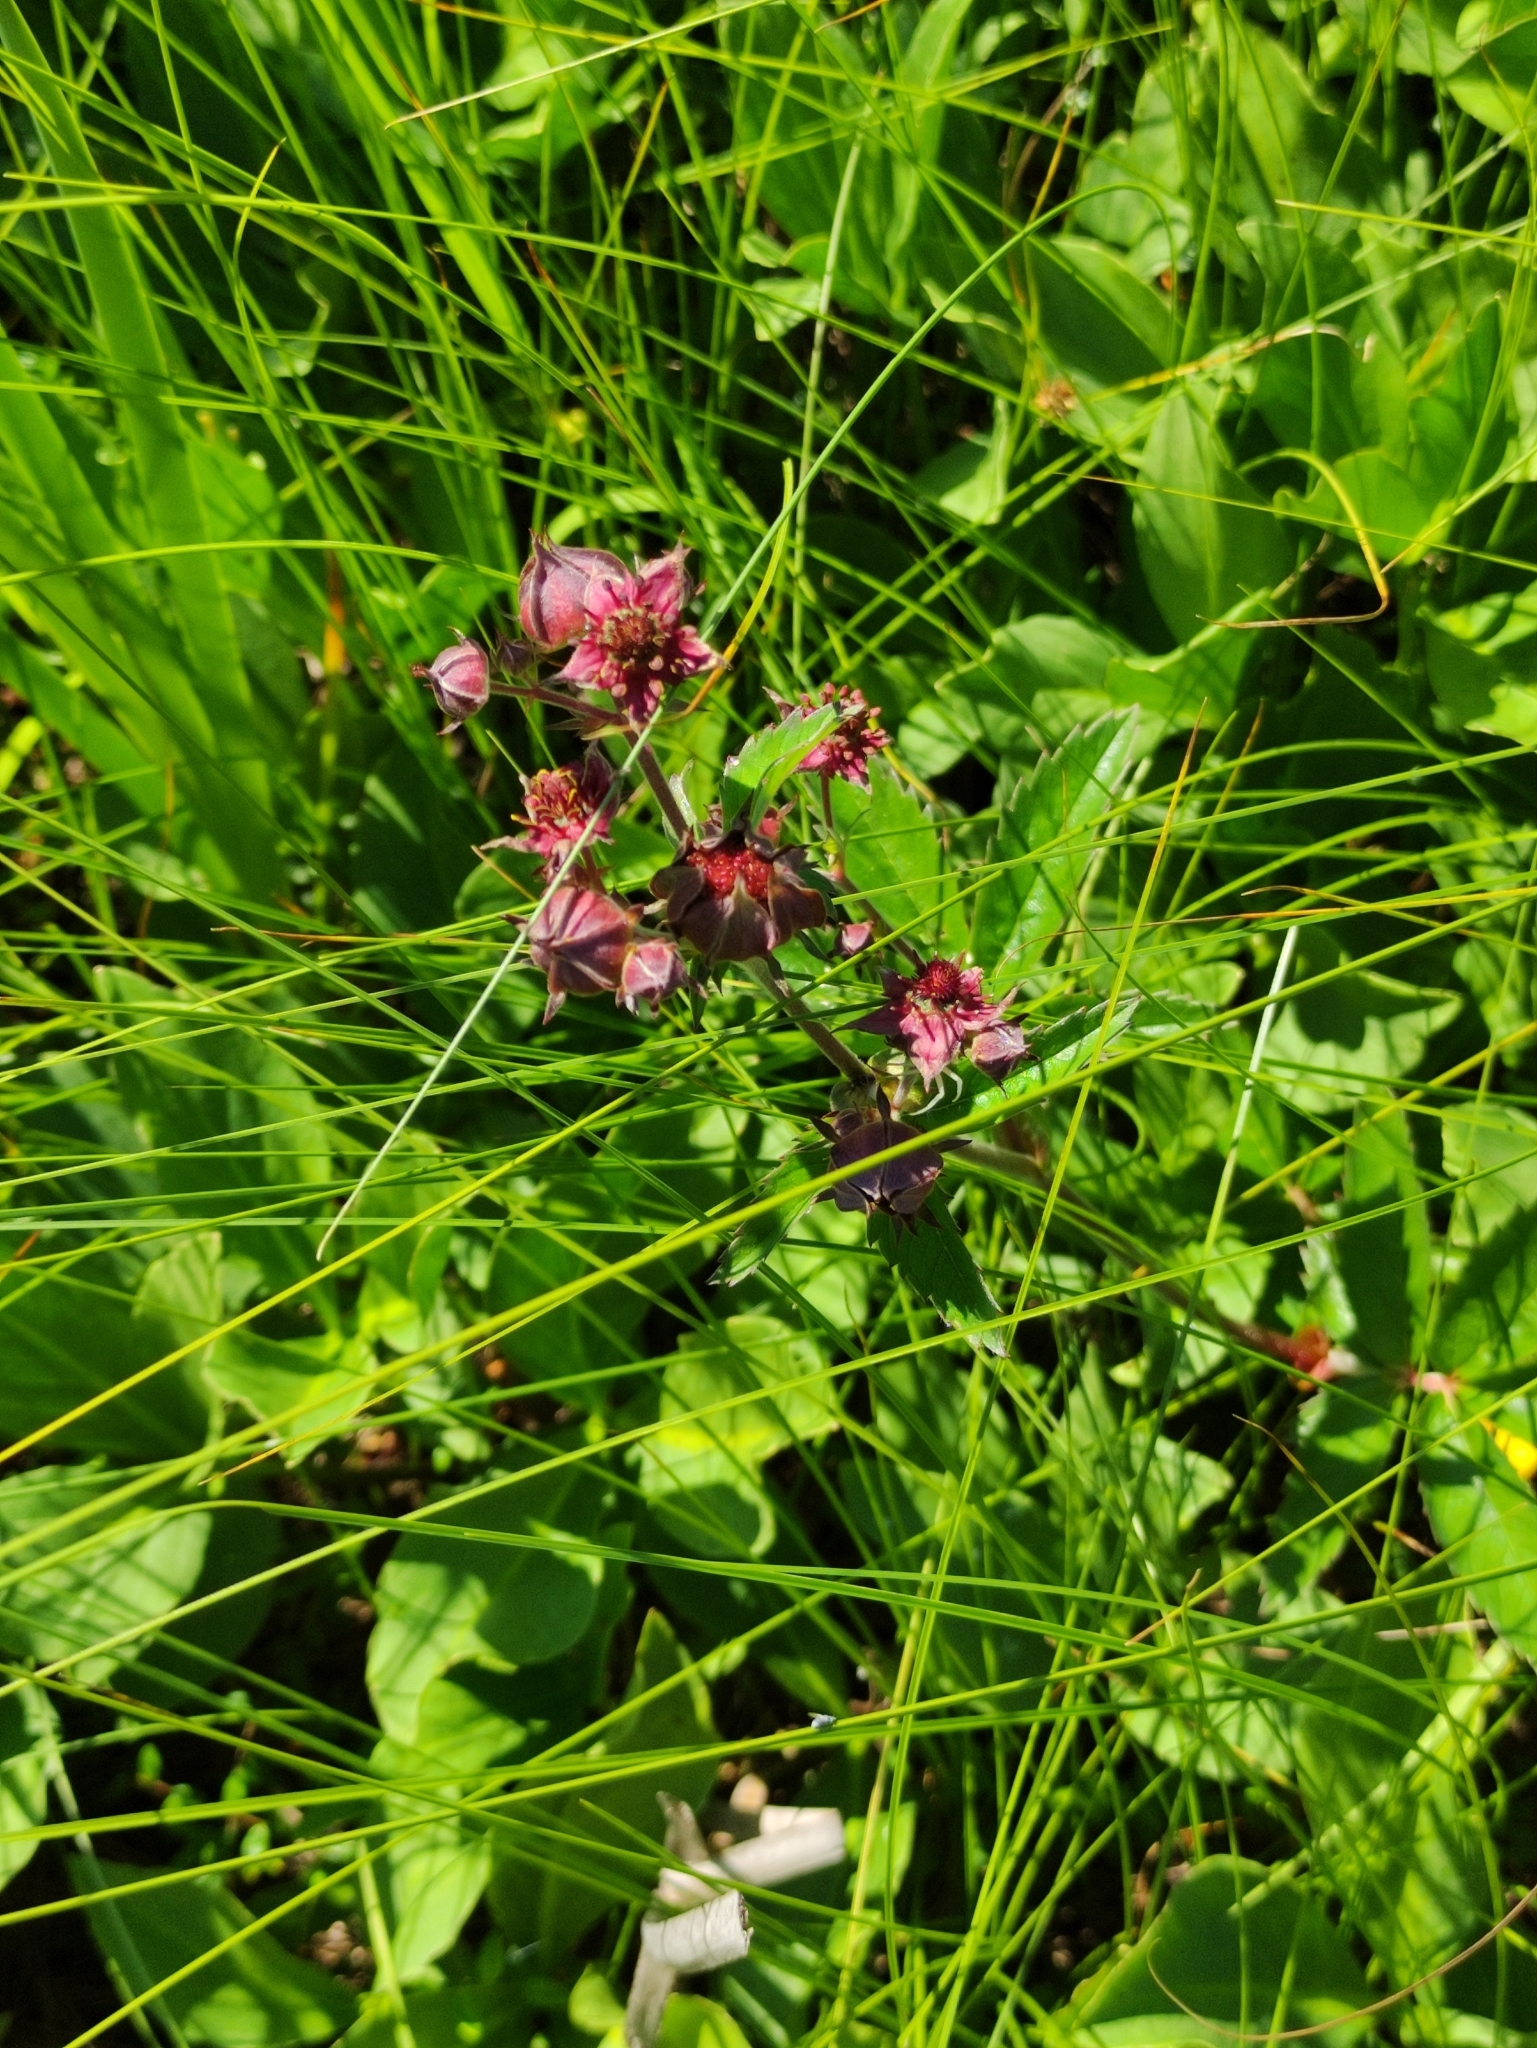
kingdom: Plantae
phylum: Tracheophyta
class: Magnoliopsida
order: Rosales
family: Rosaceae
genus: Comarum
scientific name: Comarum palustre
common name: Marsh cinquefoil
